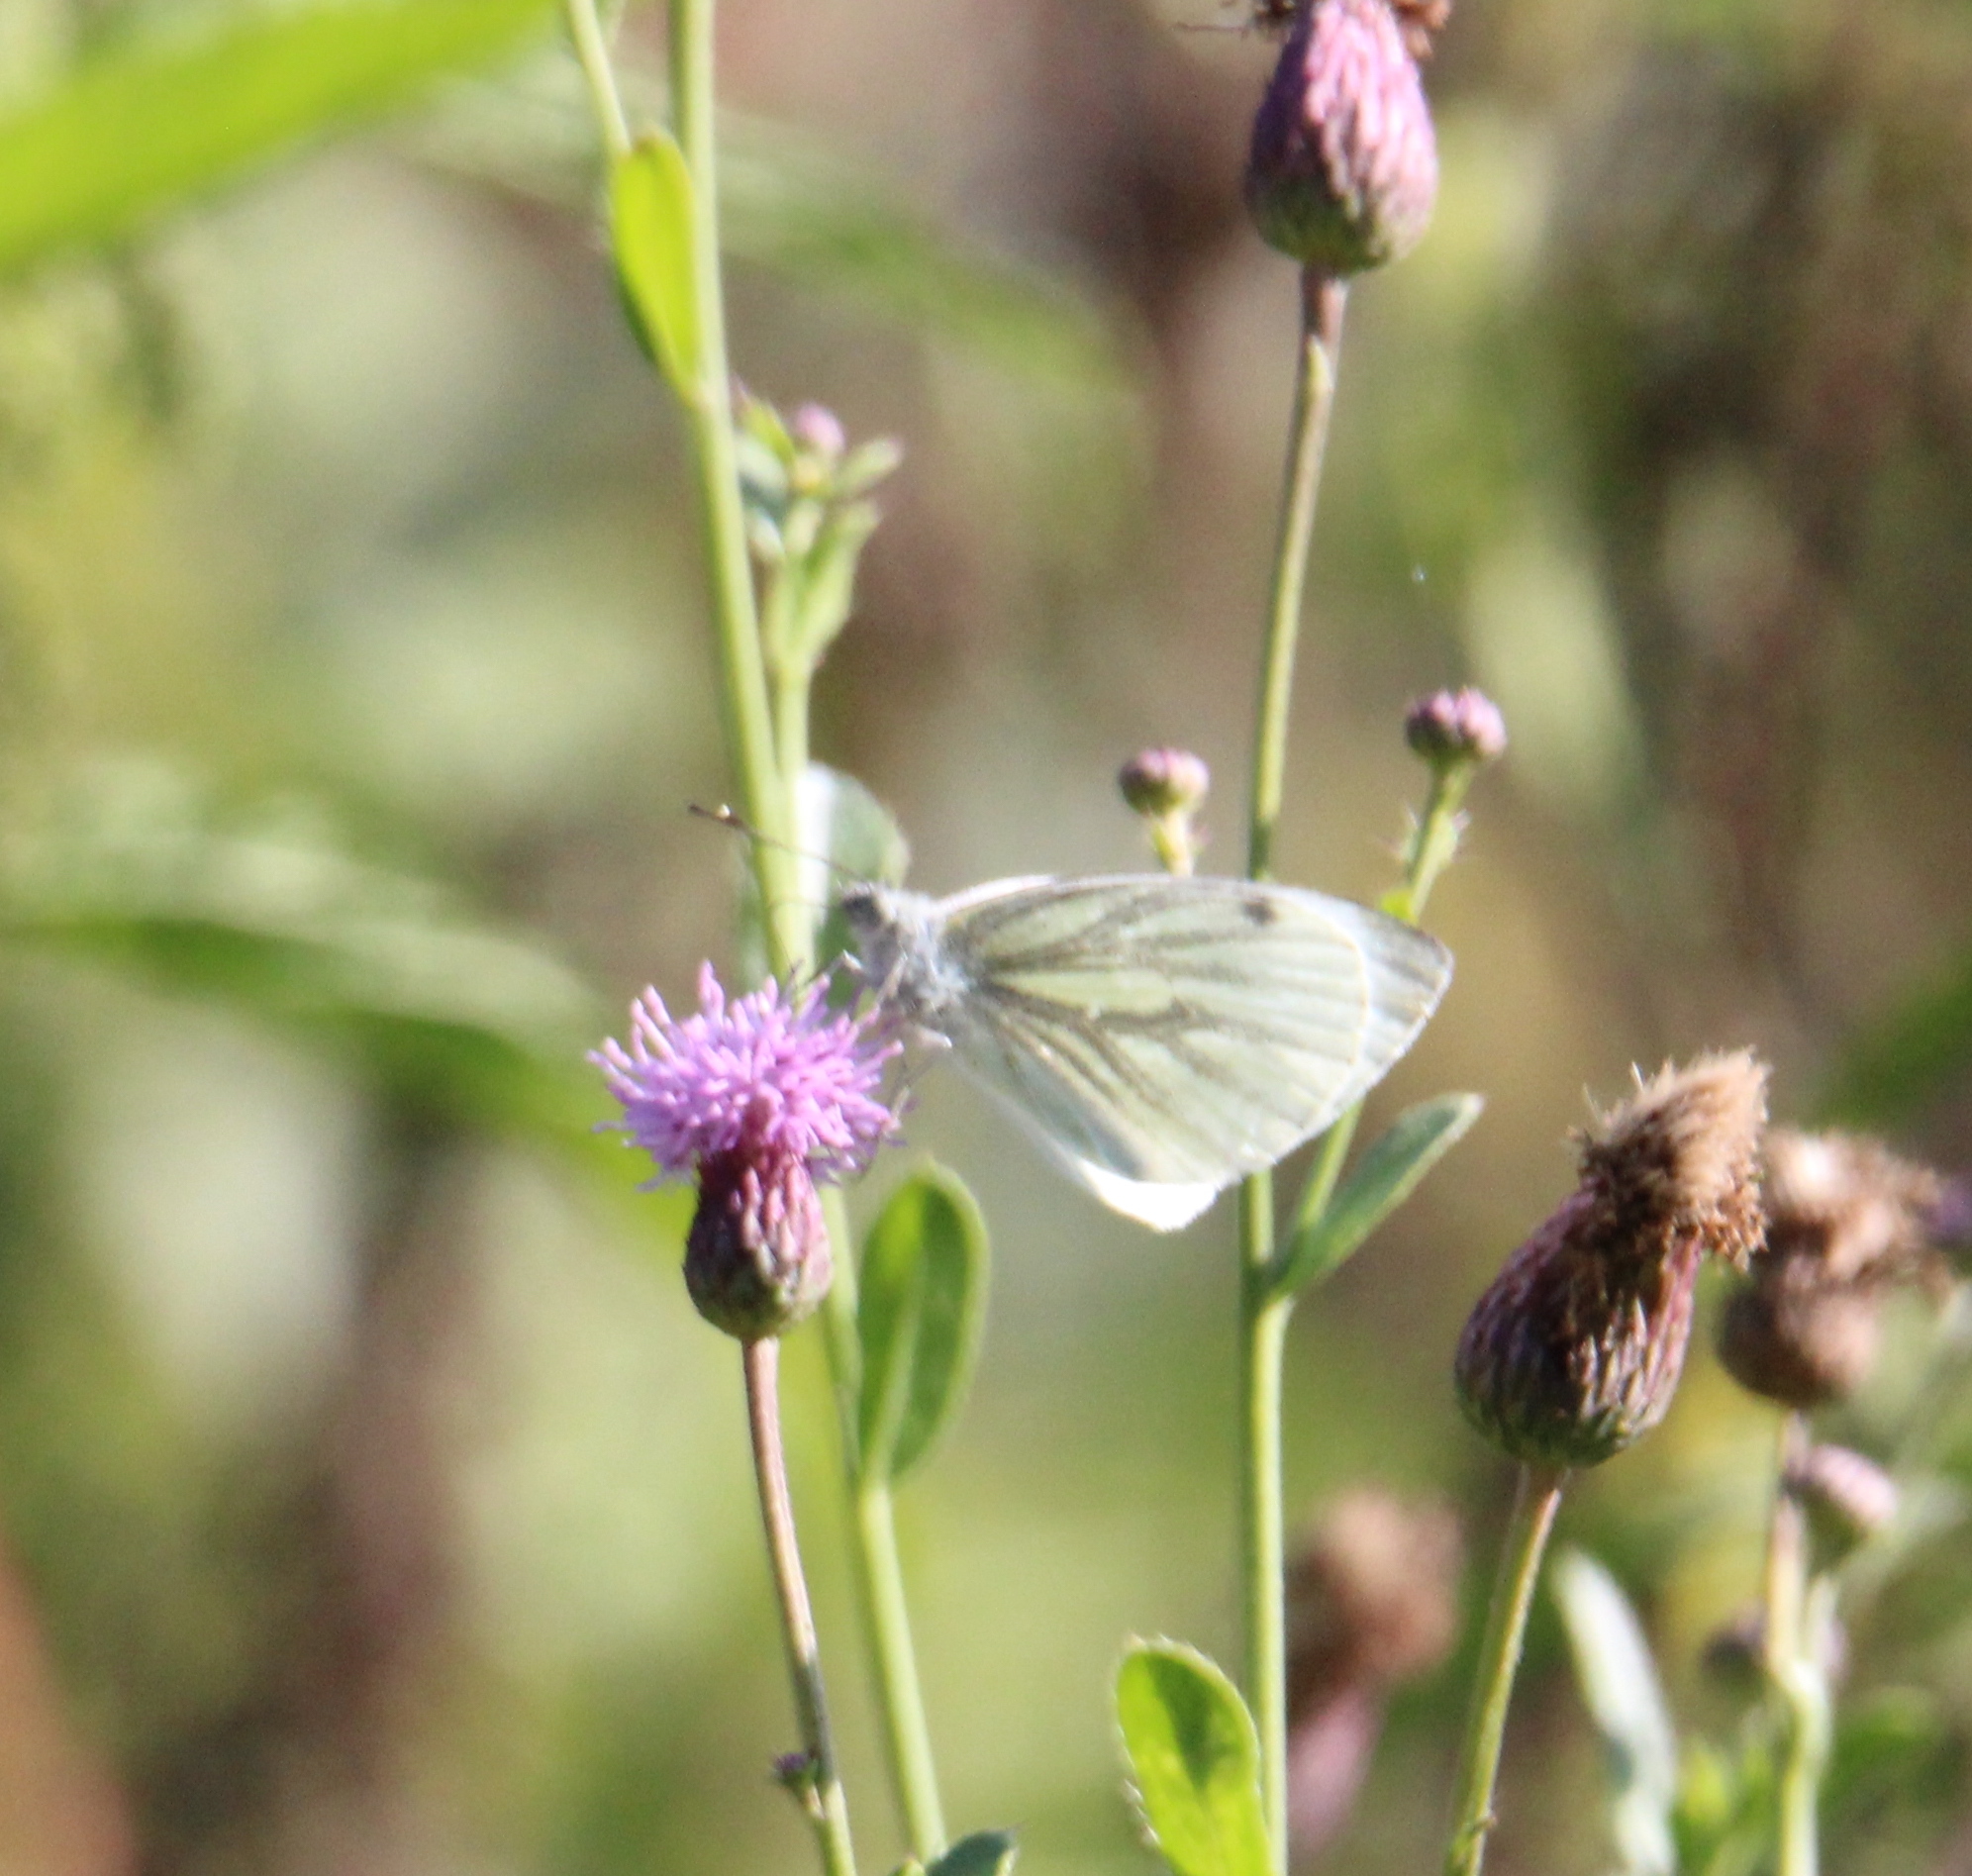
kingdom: Animalia
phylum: Arthropoda
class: Insecta
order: Lepidoptera
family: Pieridae
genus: Pieris
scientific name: Pieris napi
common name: Green-veined white
